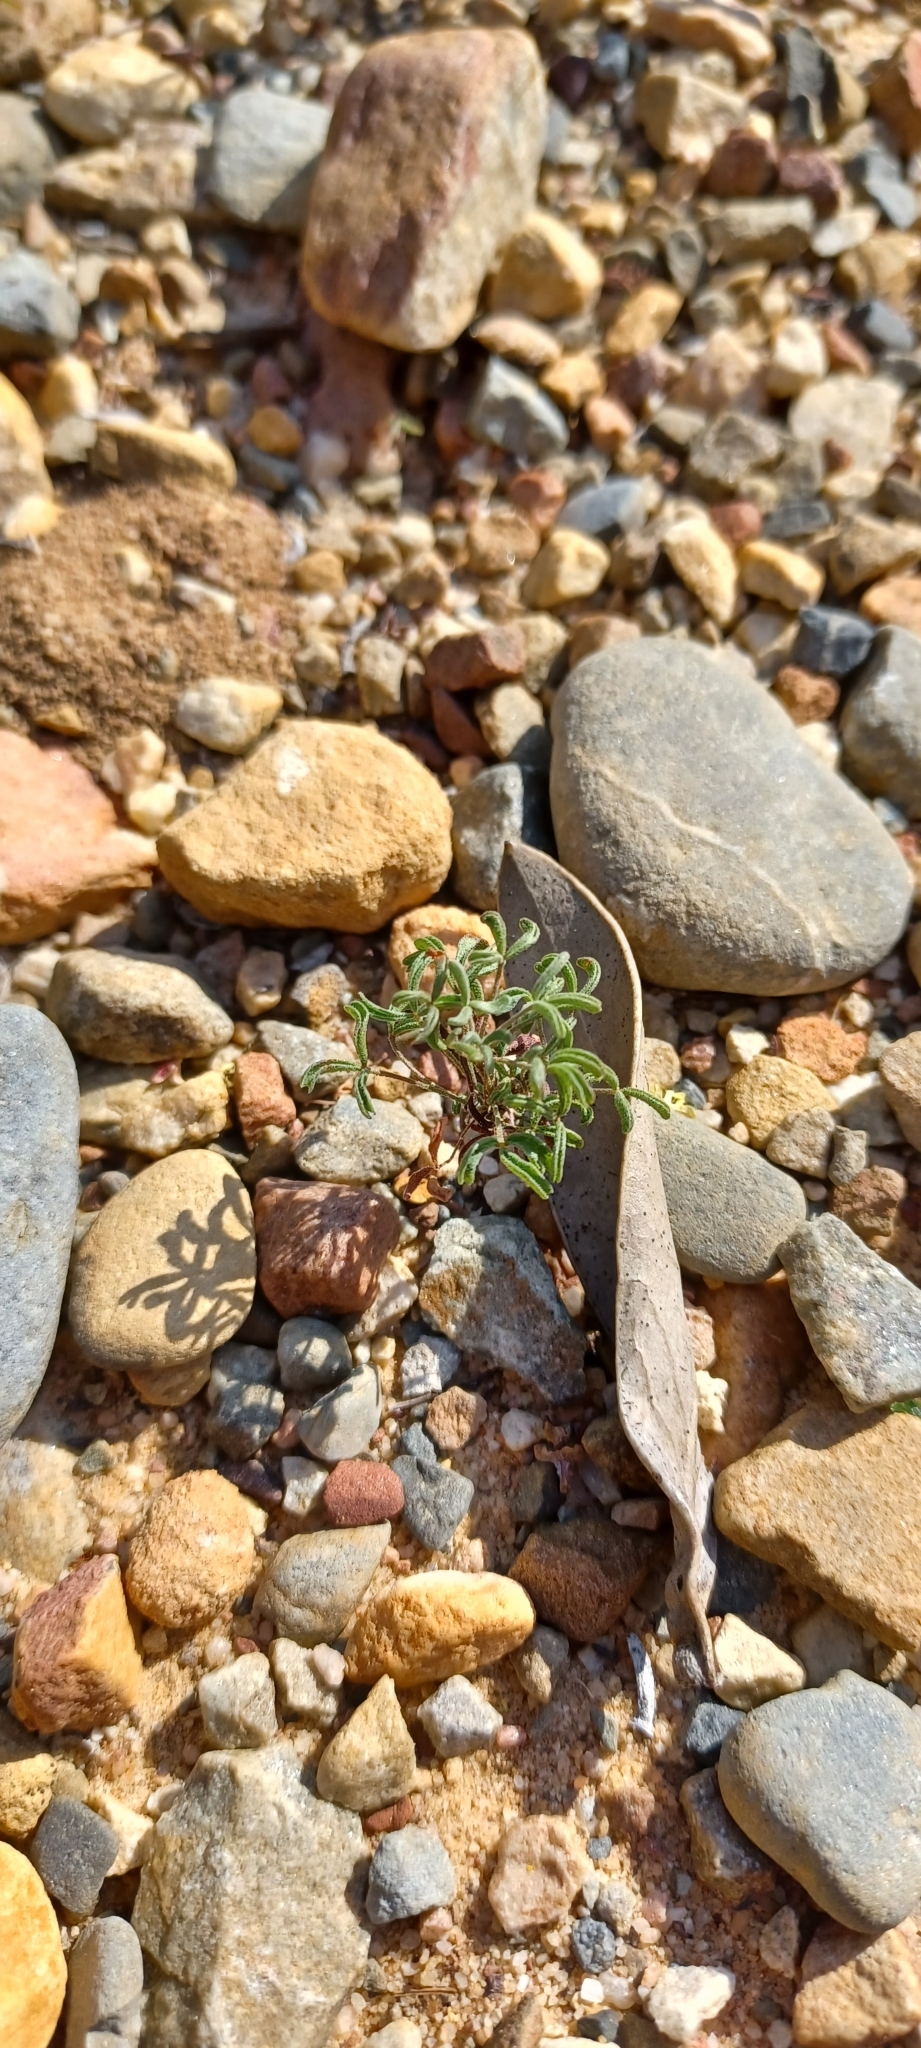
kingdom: Plantae
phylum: Tracheophyta
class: Magnoliopsida
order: Oxalidales
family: Oxalidaceae
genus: Oxalis
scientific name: Oxalis ciliaris
